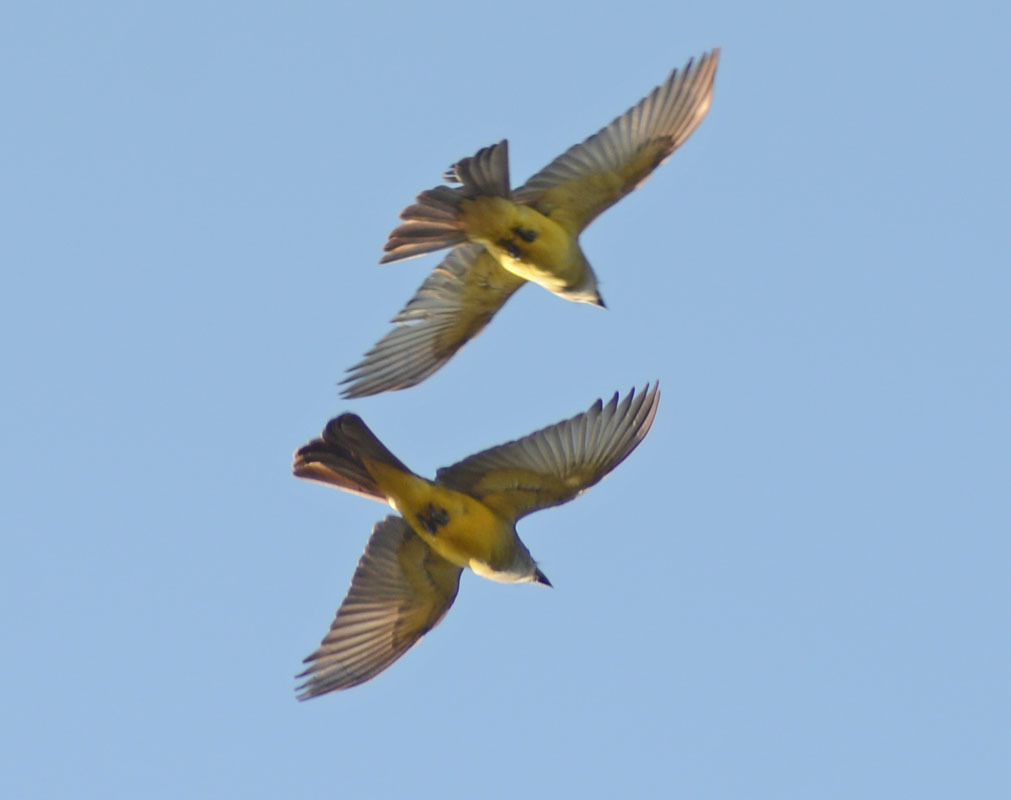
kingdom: Animalia
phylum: Chordata
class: Aves
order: Passeriformes
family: Tyrannidae
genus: Tyrannus
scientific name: Tyrannus melancholicus
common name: Tropical kingbird
